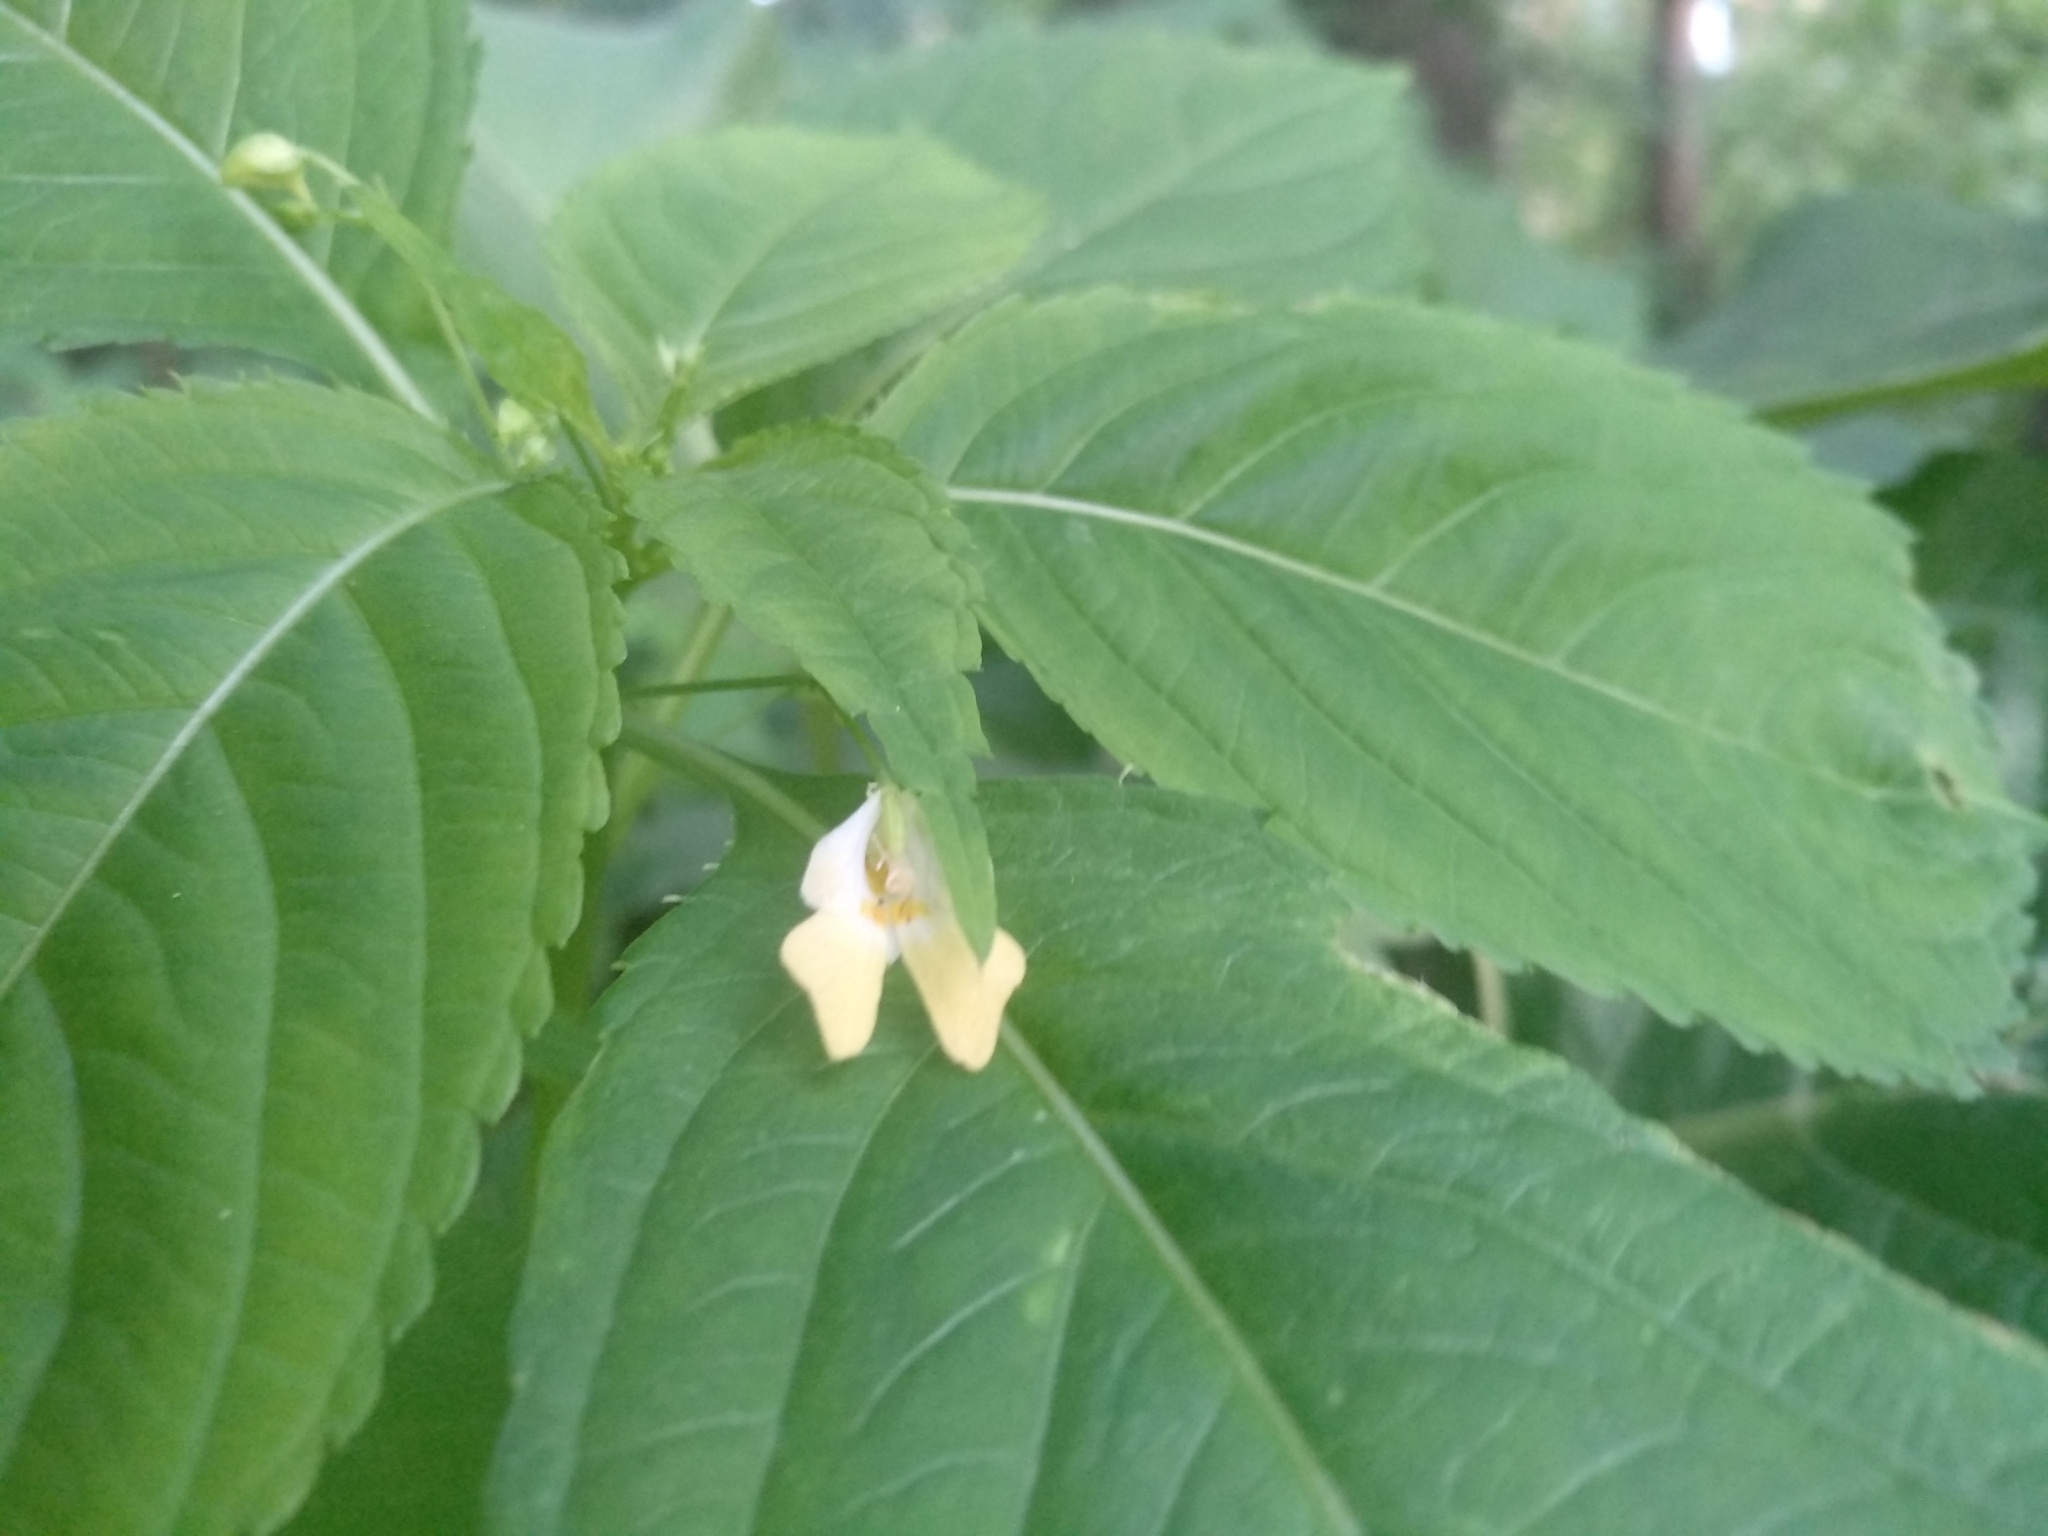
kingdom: Plantae
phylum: Tracheophyta
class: Magnoliopsida
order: Ericales
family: Balsaminaceae
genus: Impatiens
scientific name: Impatiens parviflora
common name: Small balsam
